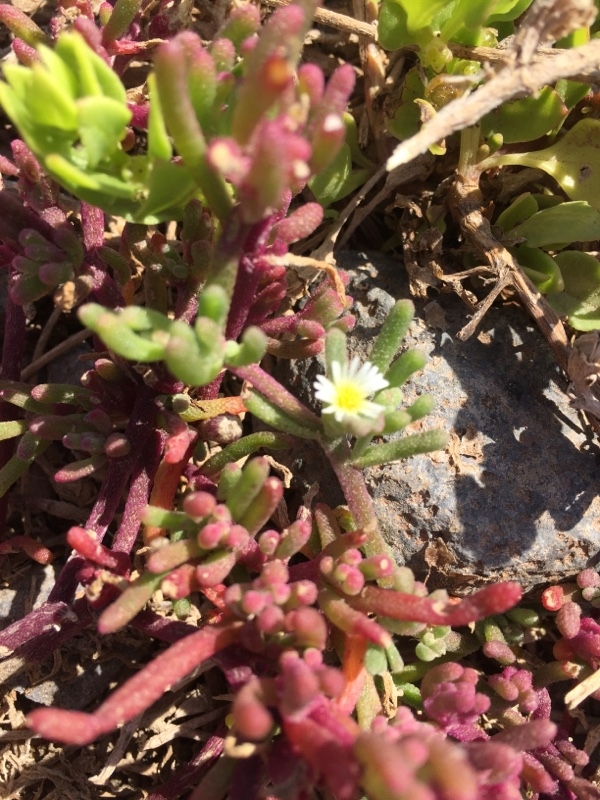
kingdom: Plantae
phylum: Tracheophyta
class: Magnoliopsida
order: Caryophyllales
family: Aizoaceae
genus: Mesembryanthemum
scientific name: Mesembryanthemum nodiflorum
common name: Slenderleaf iceplant
